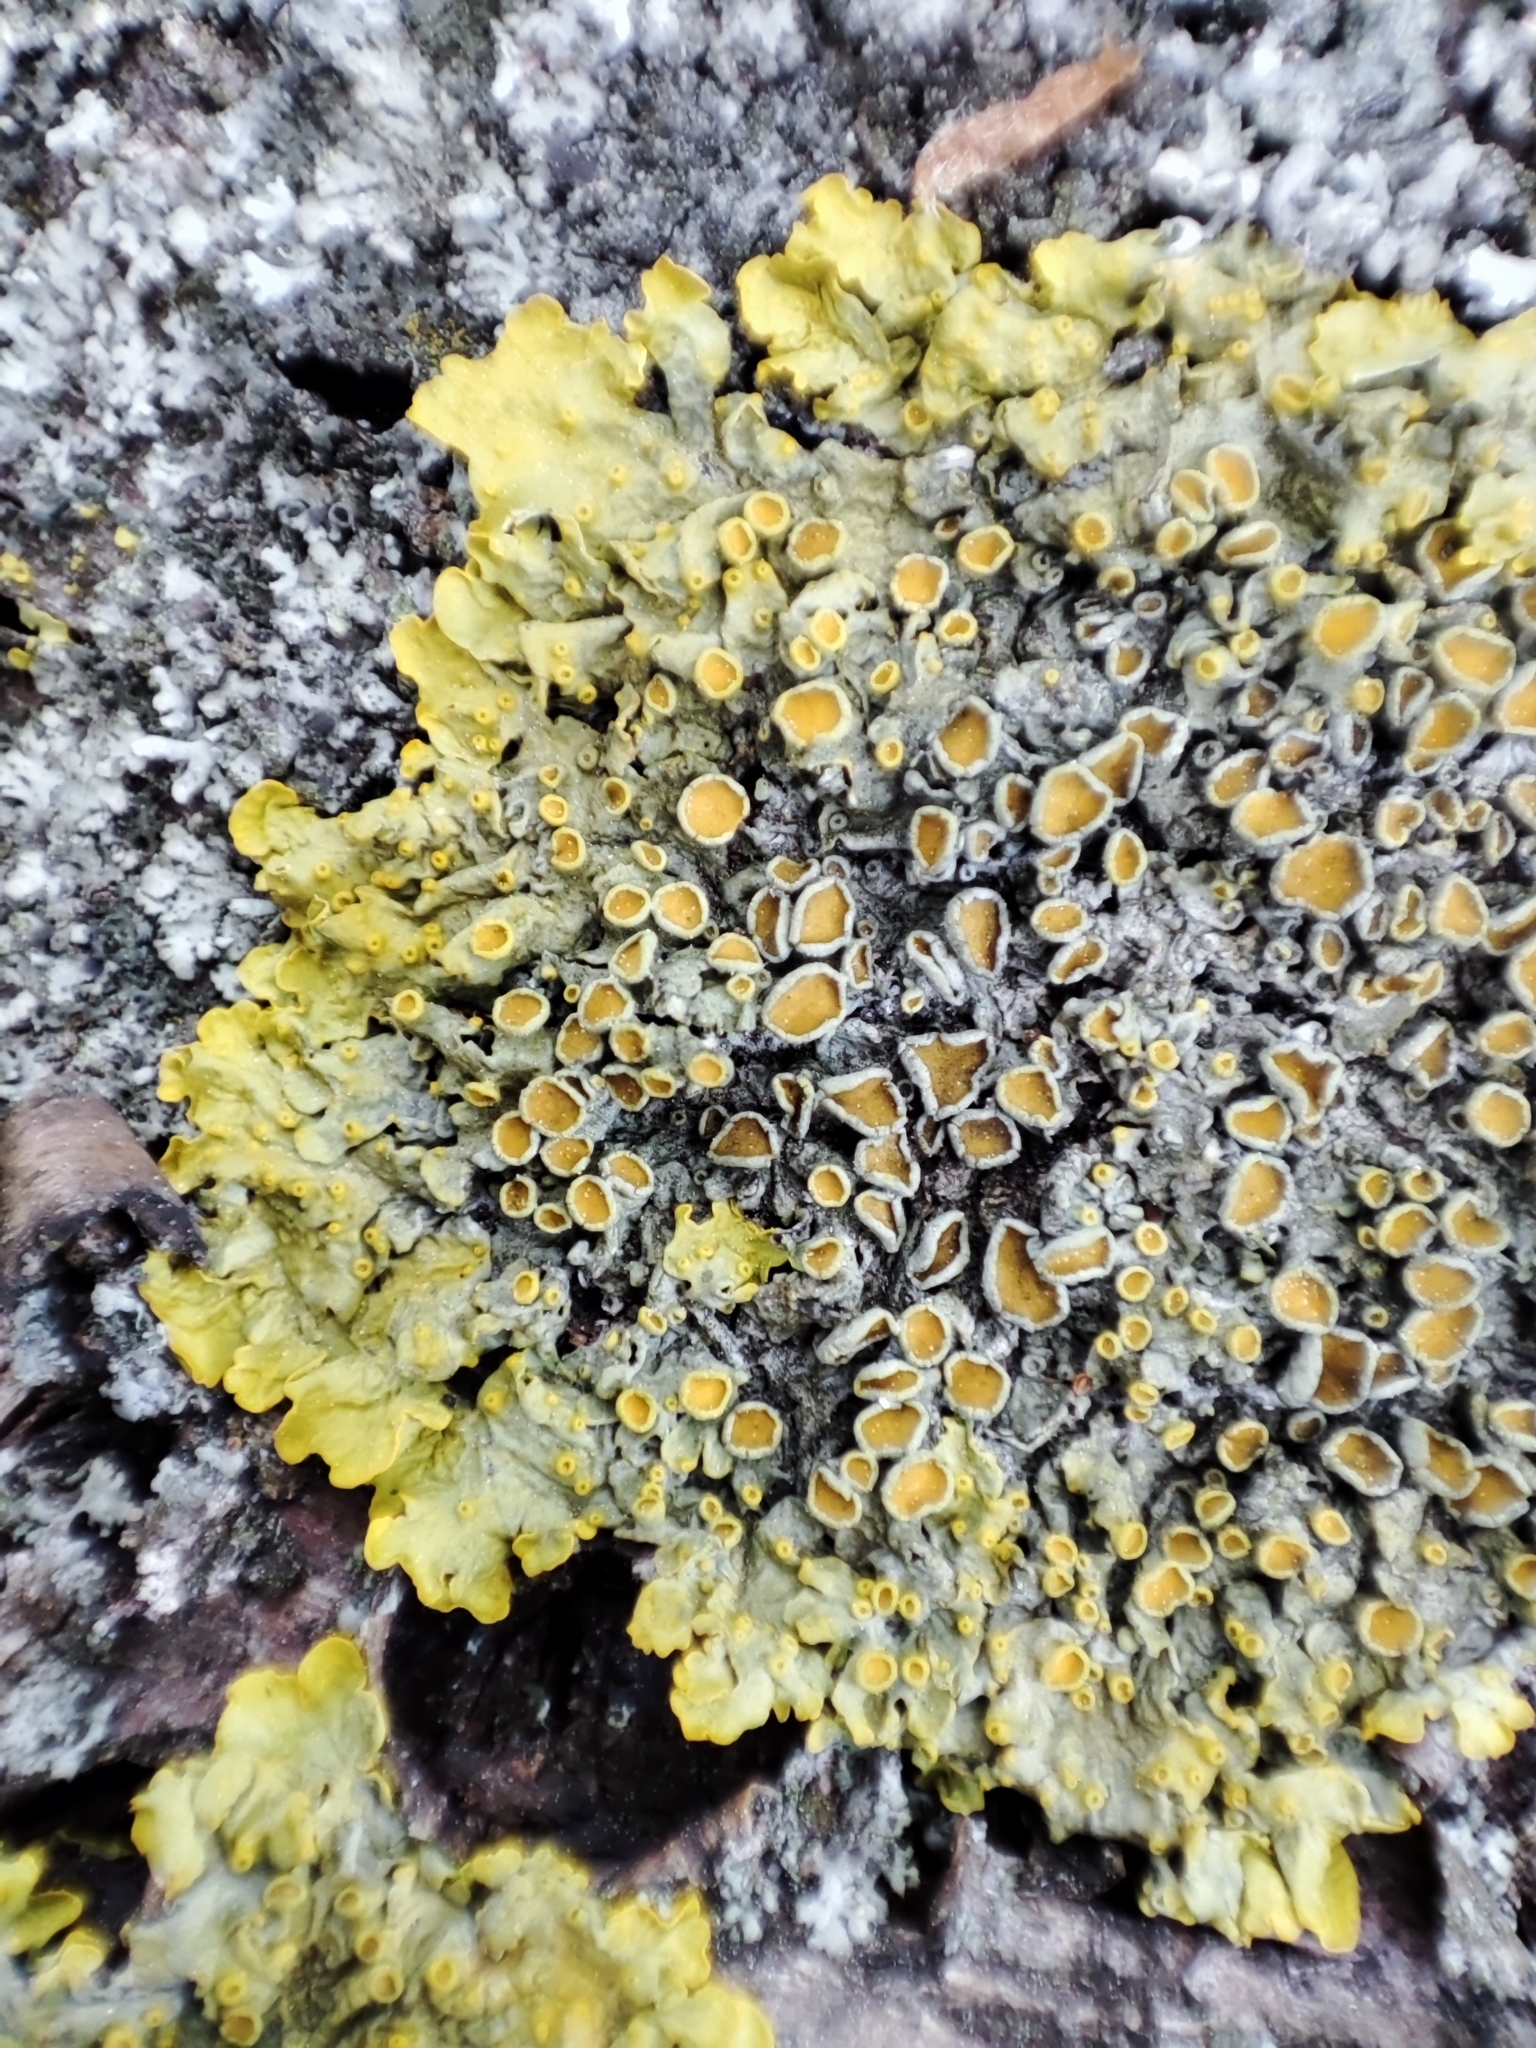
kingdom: Fungi
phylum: Ascomycota
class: Lecanoromycetes
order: Teloschistales
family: Teloschistaceae
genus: Xanthoria
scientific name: Xanthoria parietina
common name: Common orange lichen
